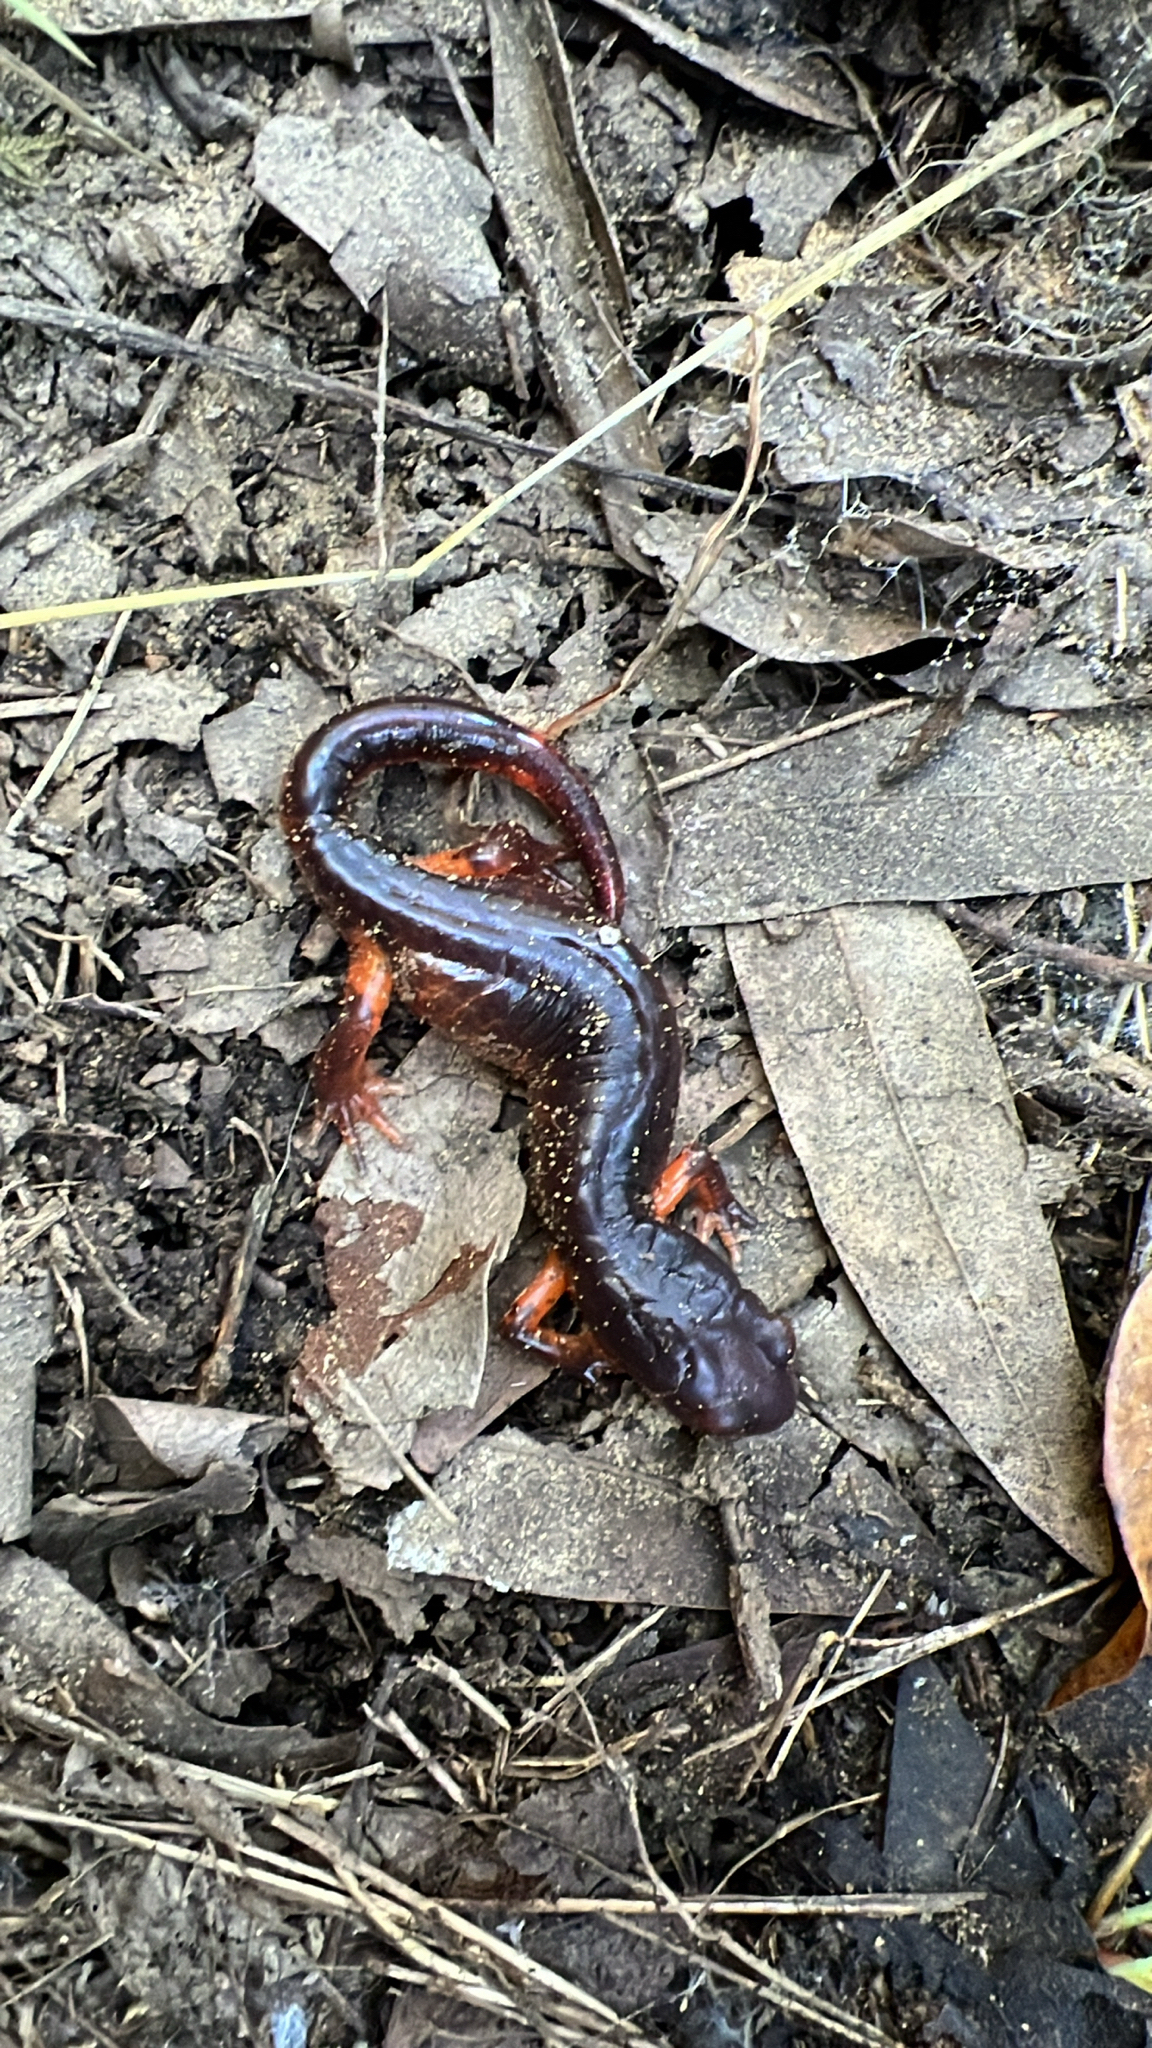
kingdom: Animalia
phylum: Chordata
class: Amphibia
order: Caudata
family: Plethodontidae
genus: Ensatina
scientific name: Ensatina eschscholtzii
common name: Ensatina
